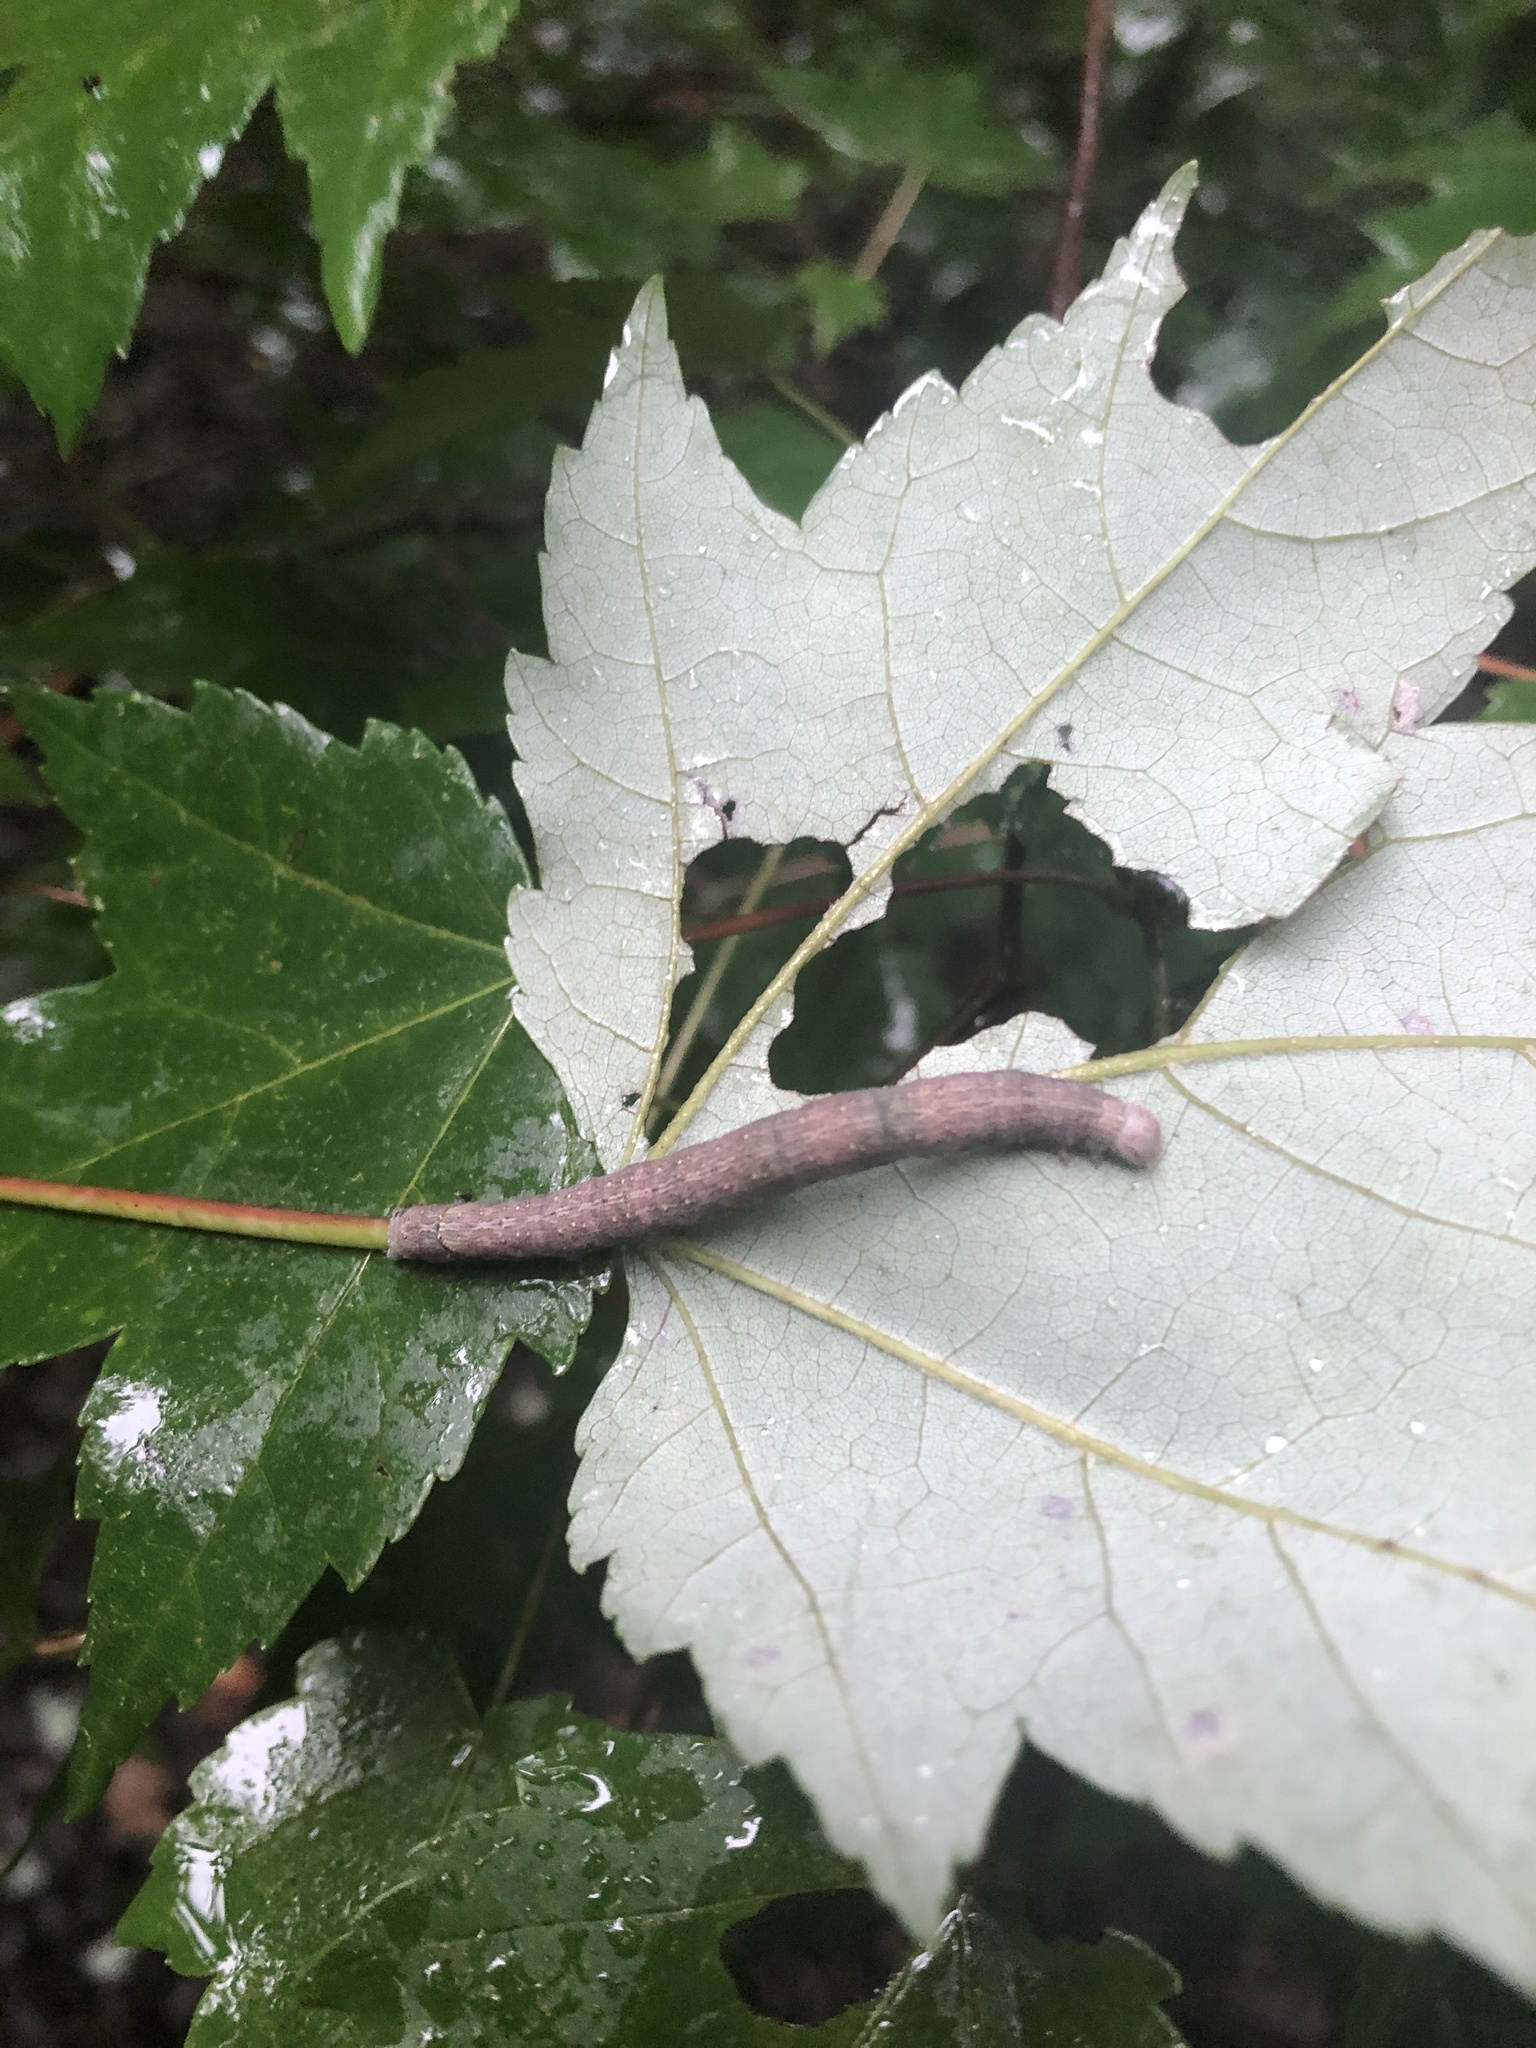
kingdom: Animalia
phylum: Arthropoda
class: Insecta
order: Lepidoptera
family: Erebidae
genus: Parallelia
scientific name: Parallelia bistriaris
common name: Maple looper moth
